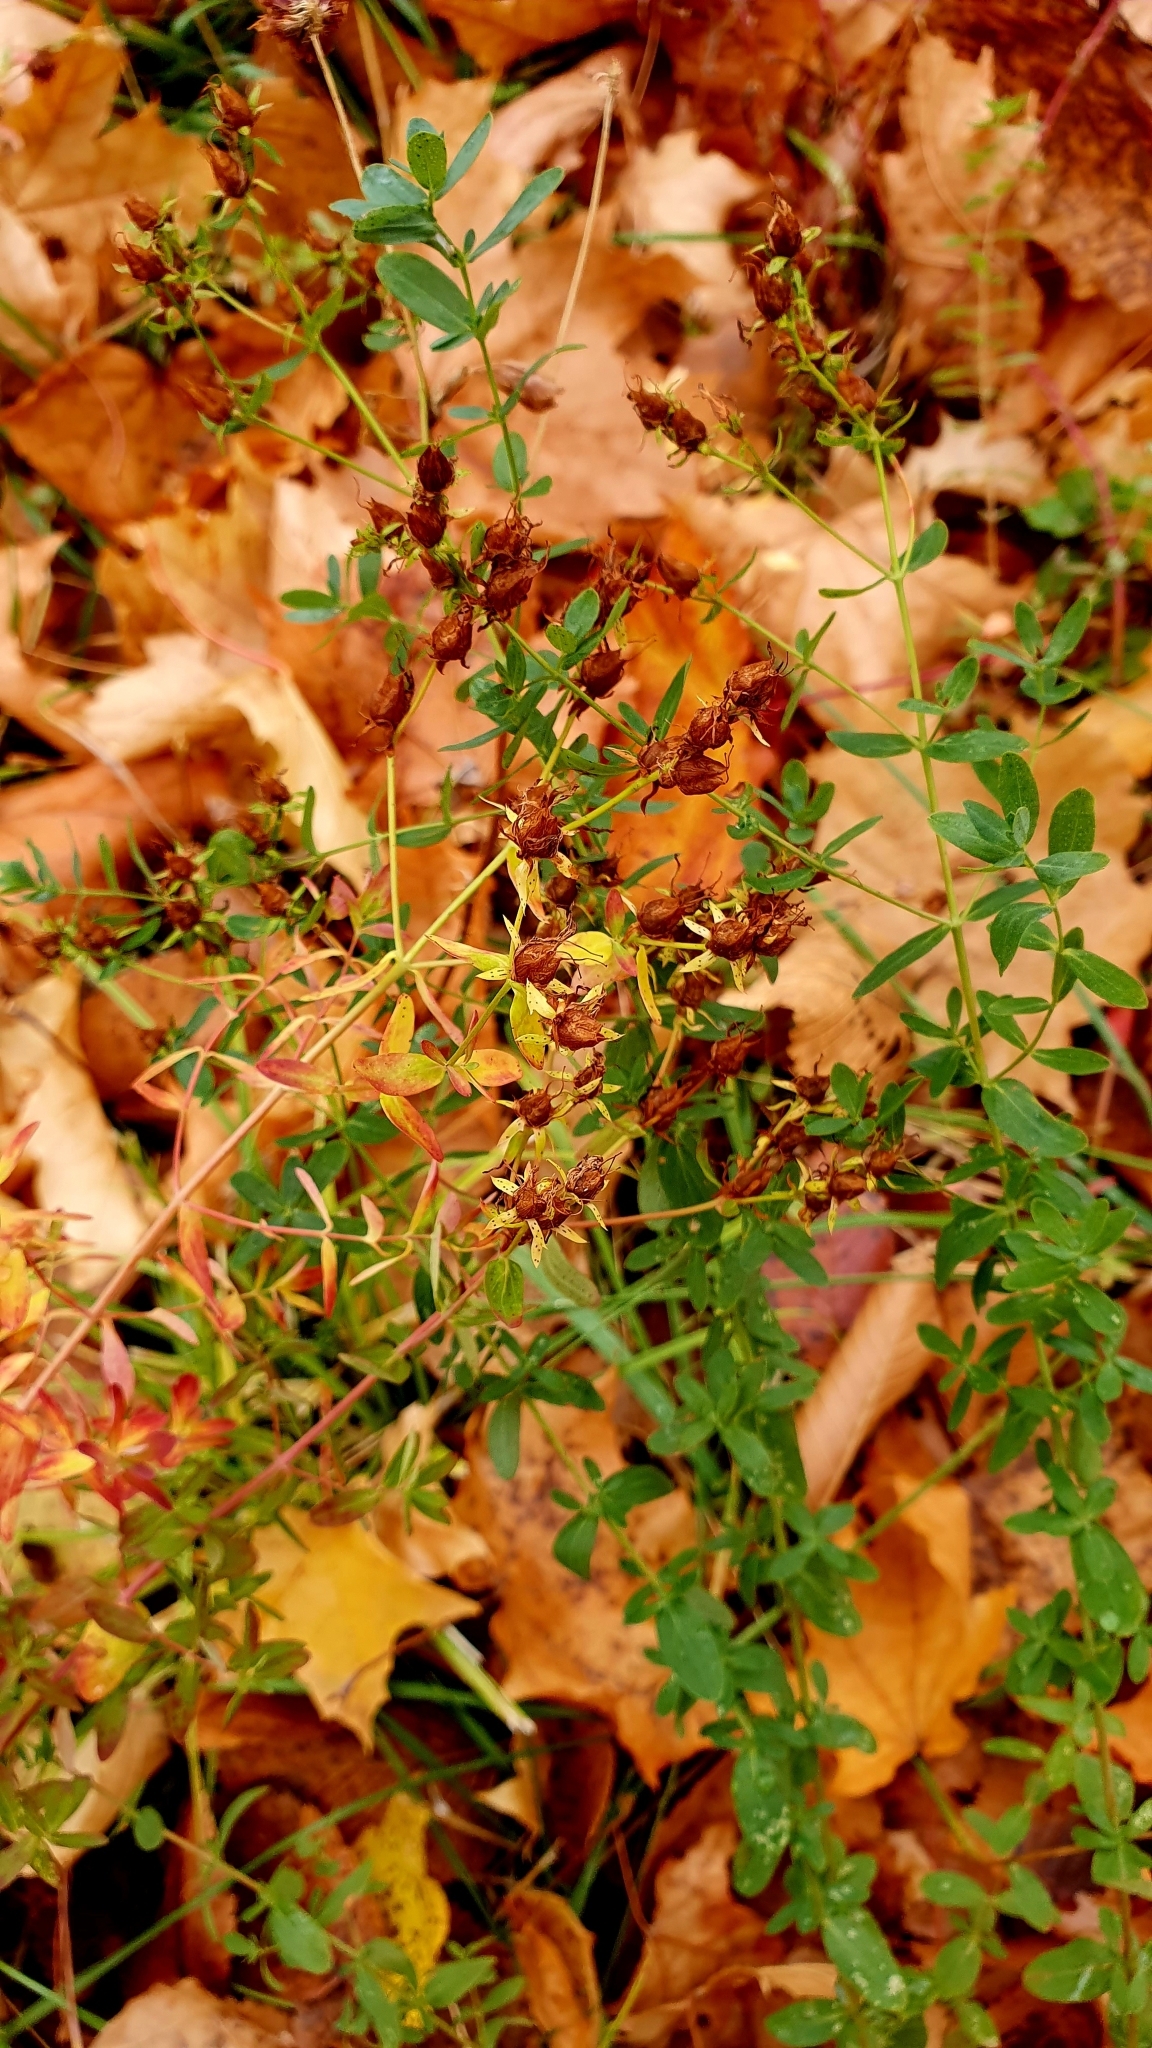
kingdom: Plantae
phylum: Tracheophyta
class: Magnoliopsida
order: Malpighiales
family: Hypericaceae
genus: Hypericum
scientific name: Hypericum perforatum
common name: Common st. johnswort
